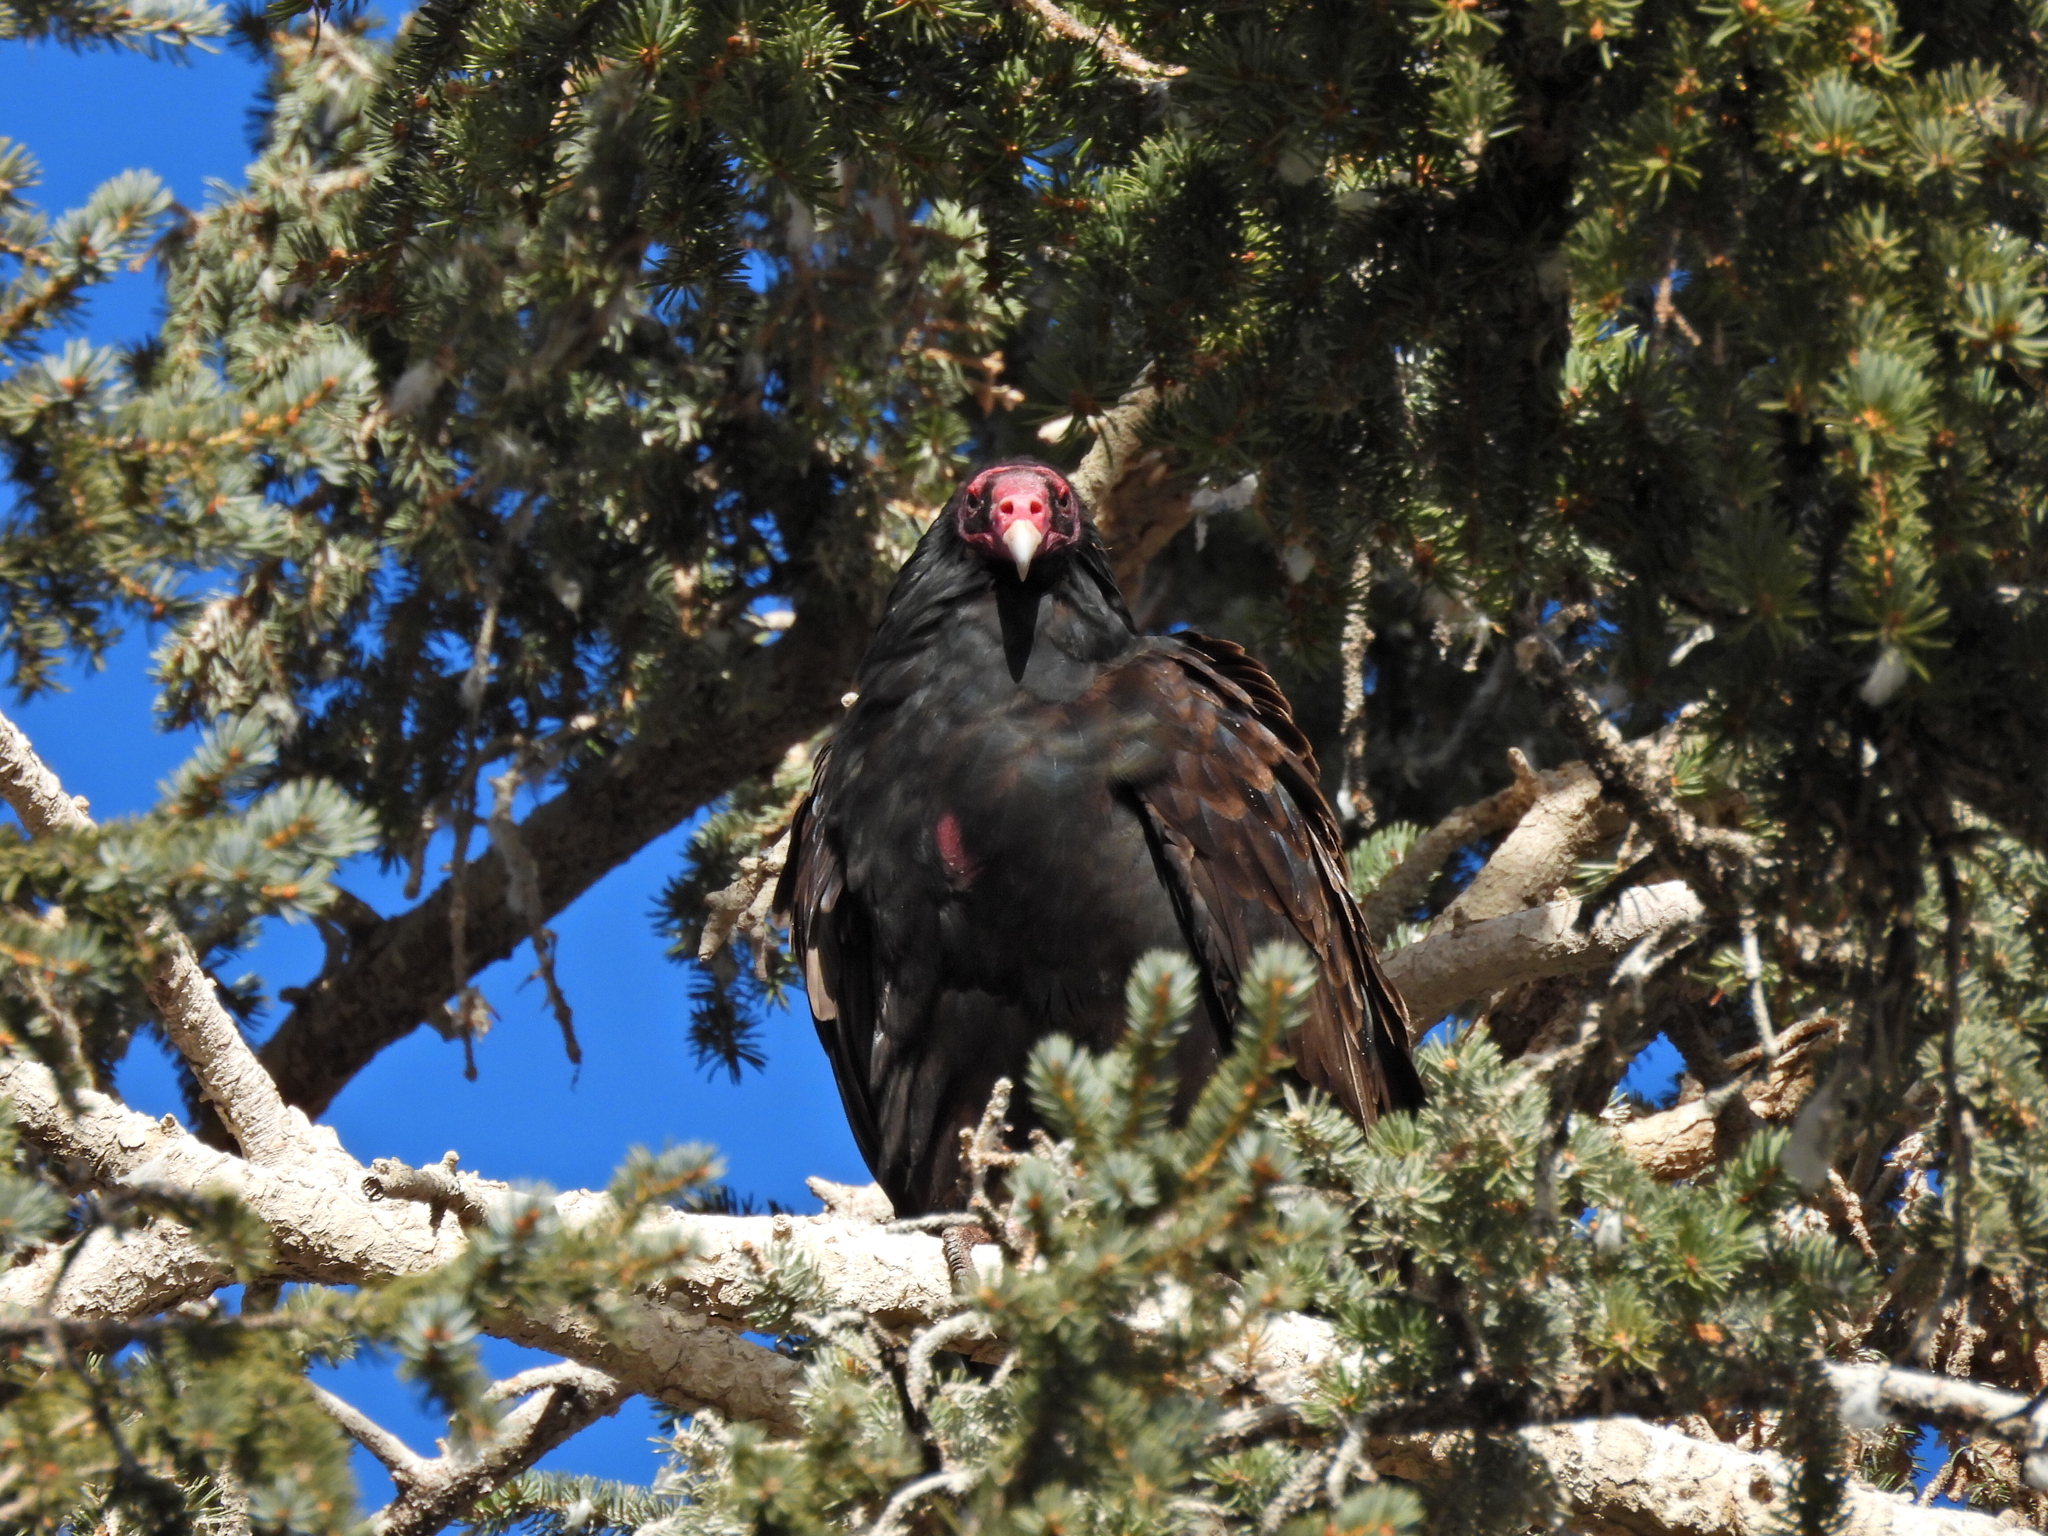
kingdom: Animalia
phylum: Chordata
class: Aves
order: Accipitriformes
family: Cathartidae
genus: Cathartes
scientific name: Cathartes aura
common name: Turkey vulture
